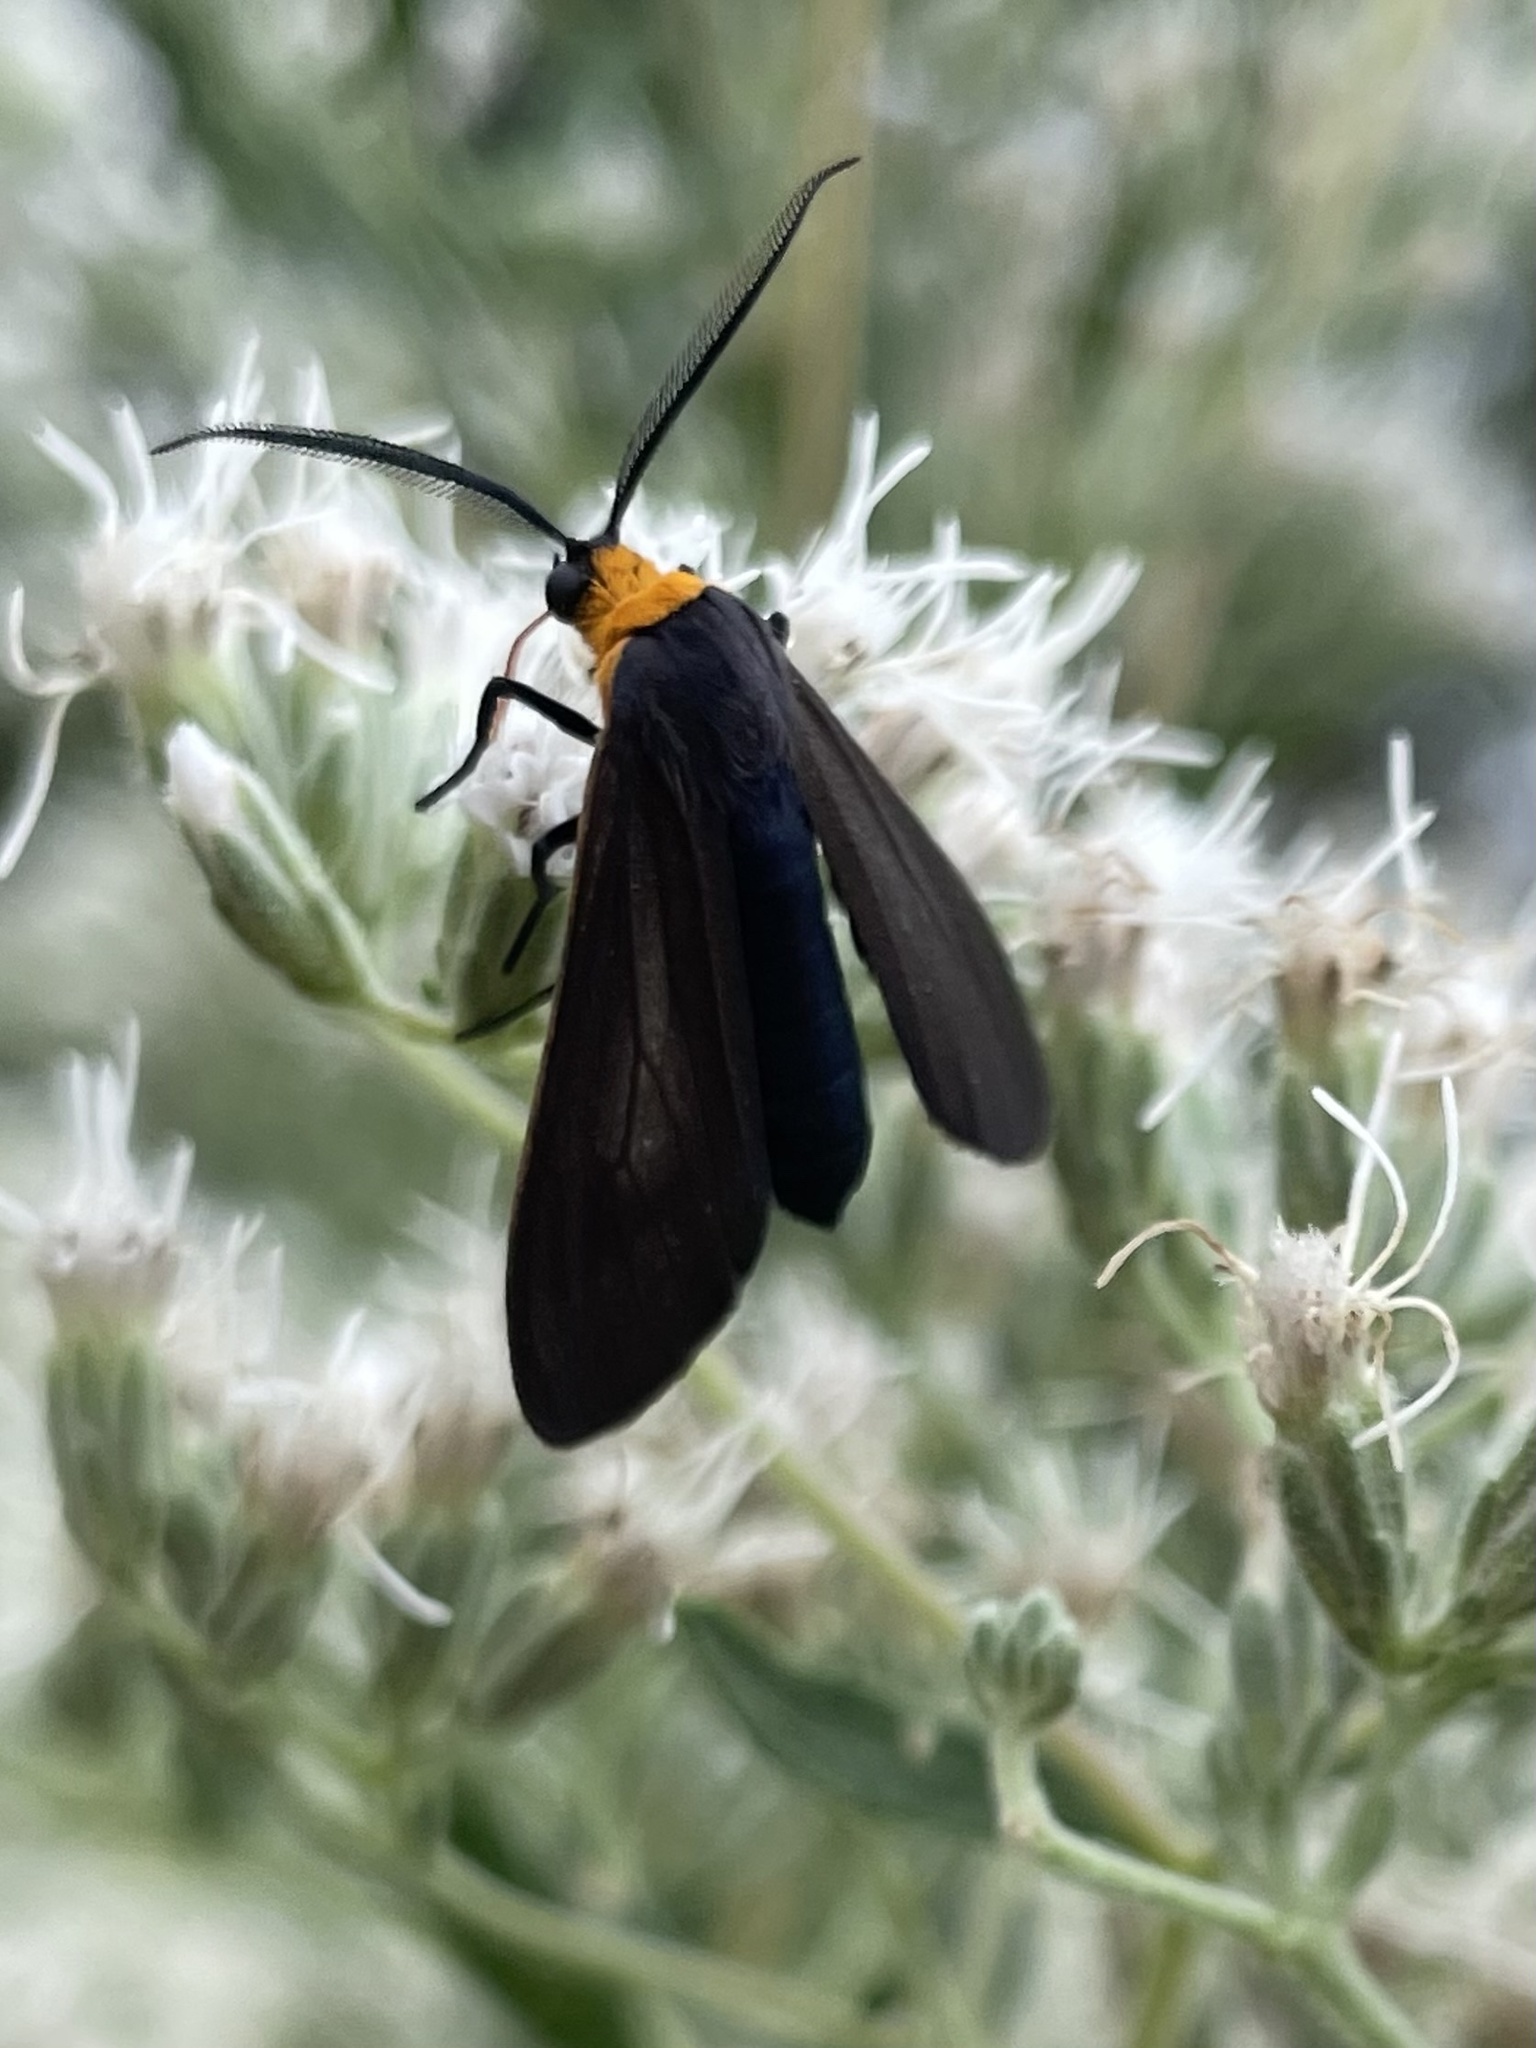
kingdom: Animalia
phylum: Arthropoda
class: Insecta
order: Lepidoptera
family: Erebidae
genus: Cisseps
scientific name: Cisseps fulvicollis
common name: Yellow-collared scape moth
